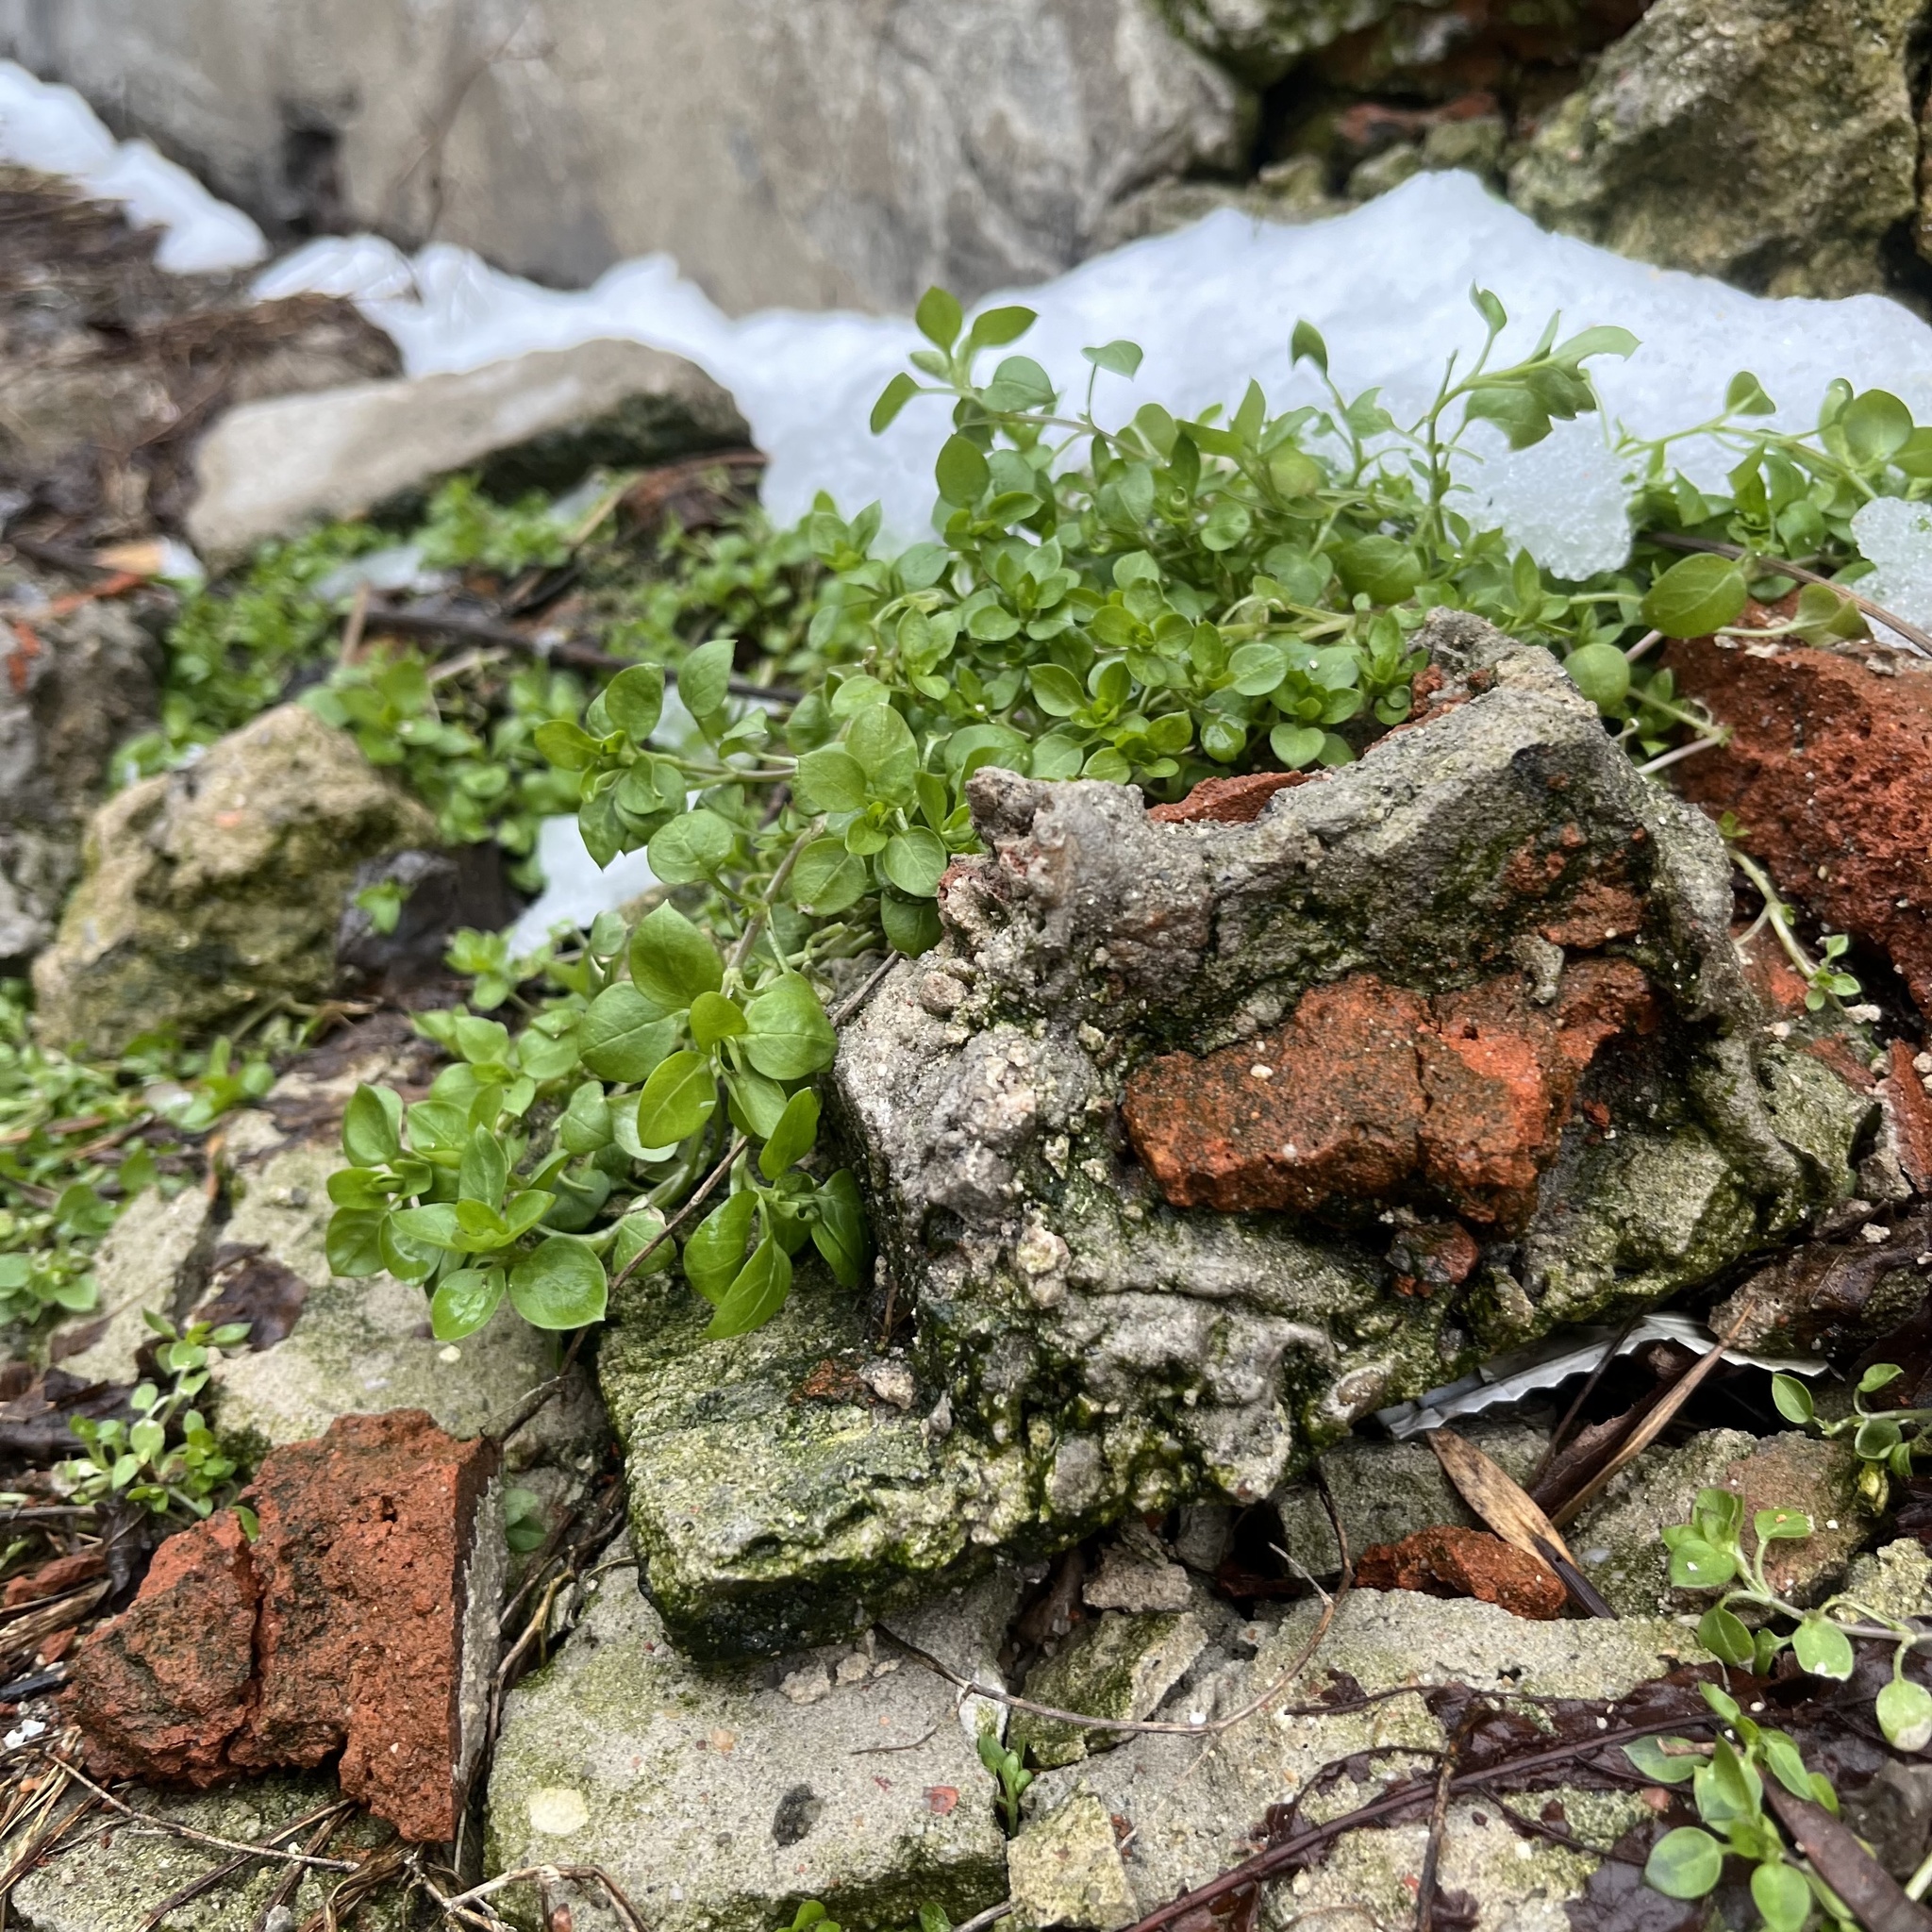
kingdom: Plantae
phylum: Tracheophyta
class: Magnoliopsida
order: Caryophyllales
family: Caryophyllaceae
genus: Stellaria
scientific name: Stellaria media
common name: Common chickweed
